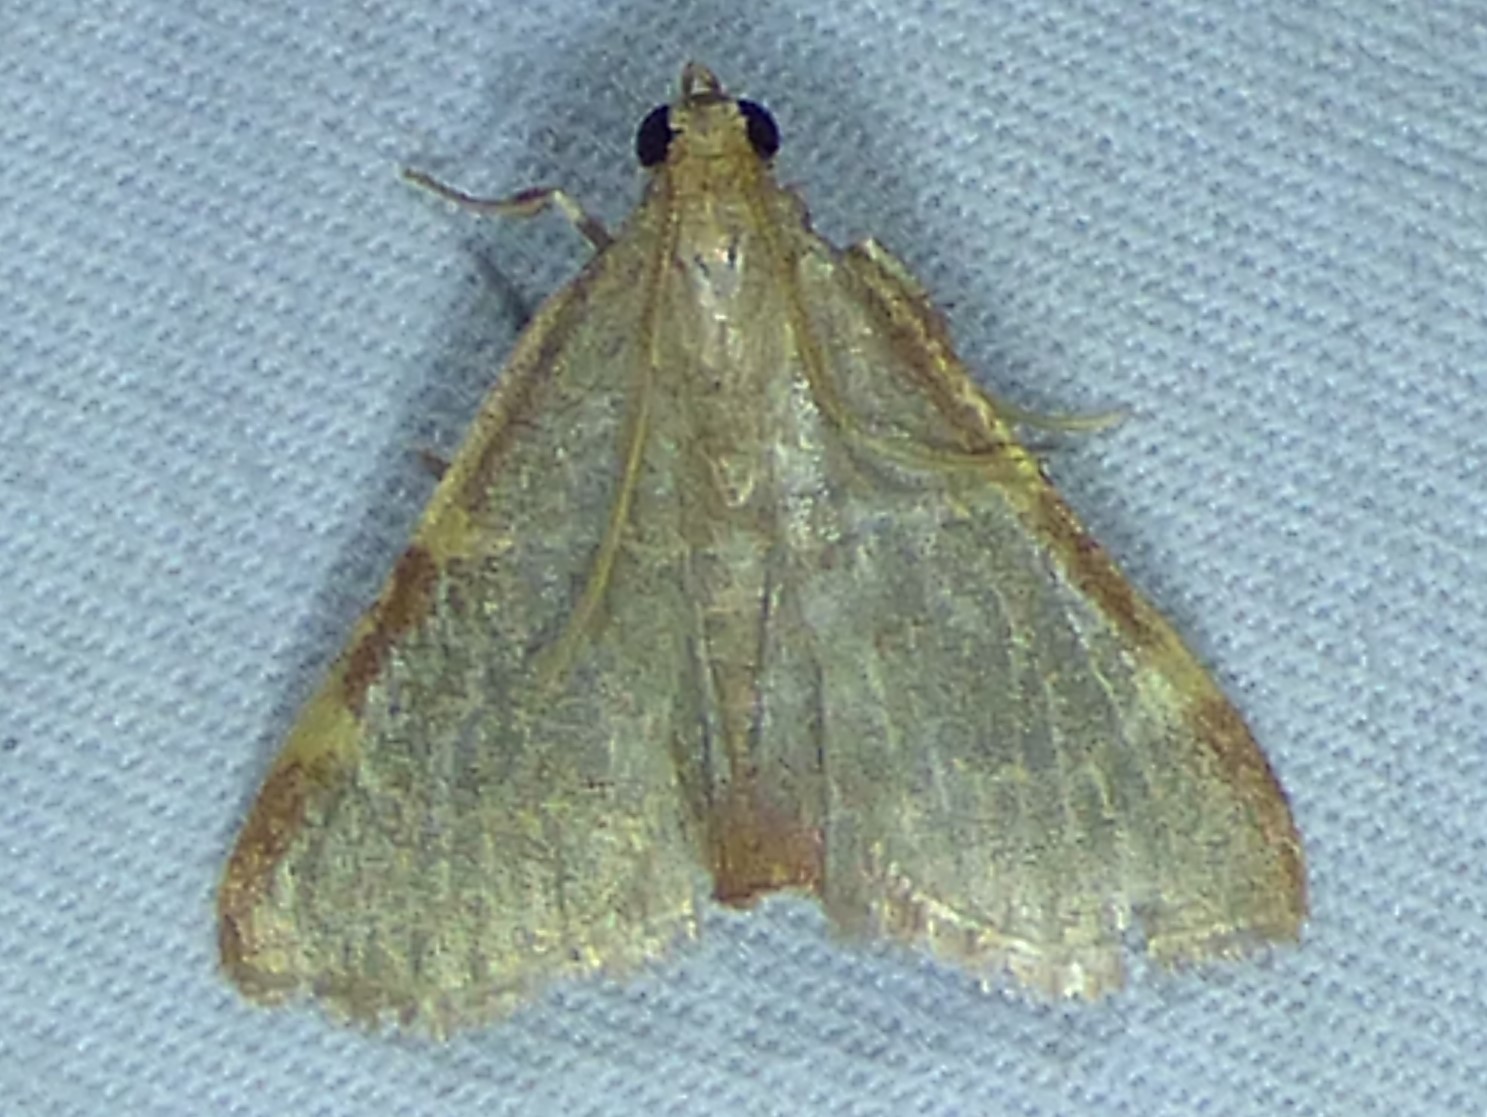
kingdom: Animalia
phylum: Arthropoda
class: Insecta
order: Lepidoptera
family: Pyralidae
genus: Hypsopygia
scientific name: Hypsopygia binodulalis
